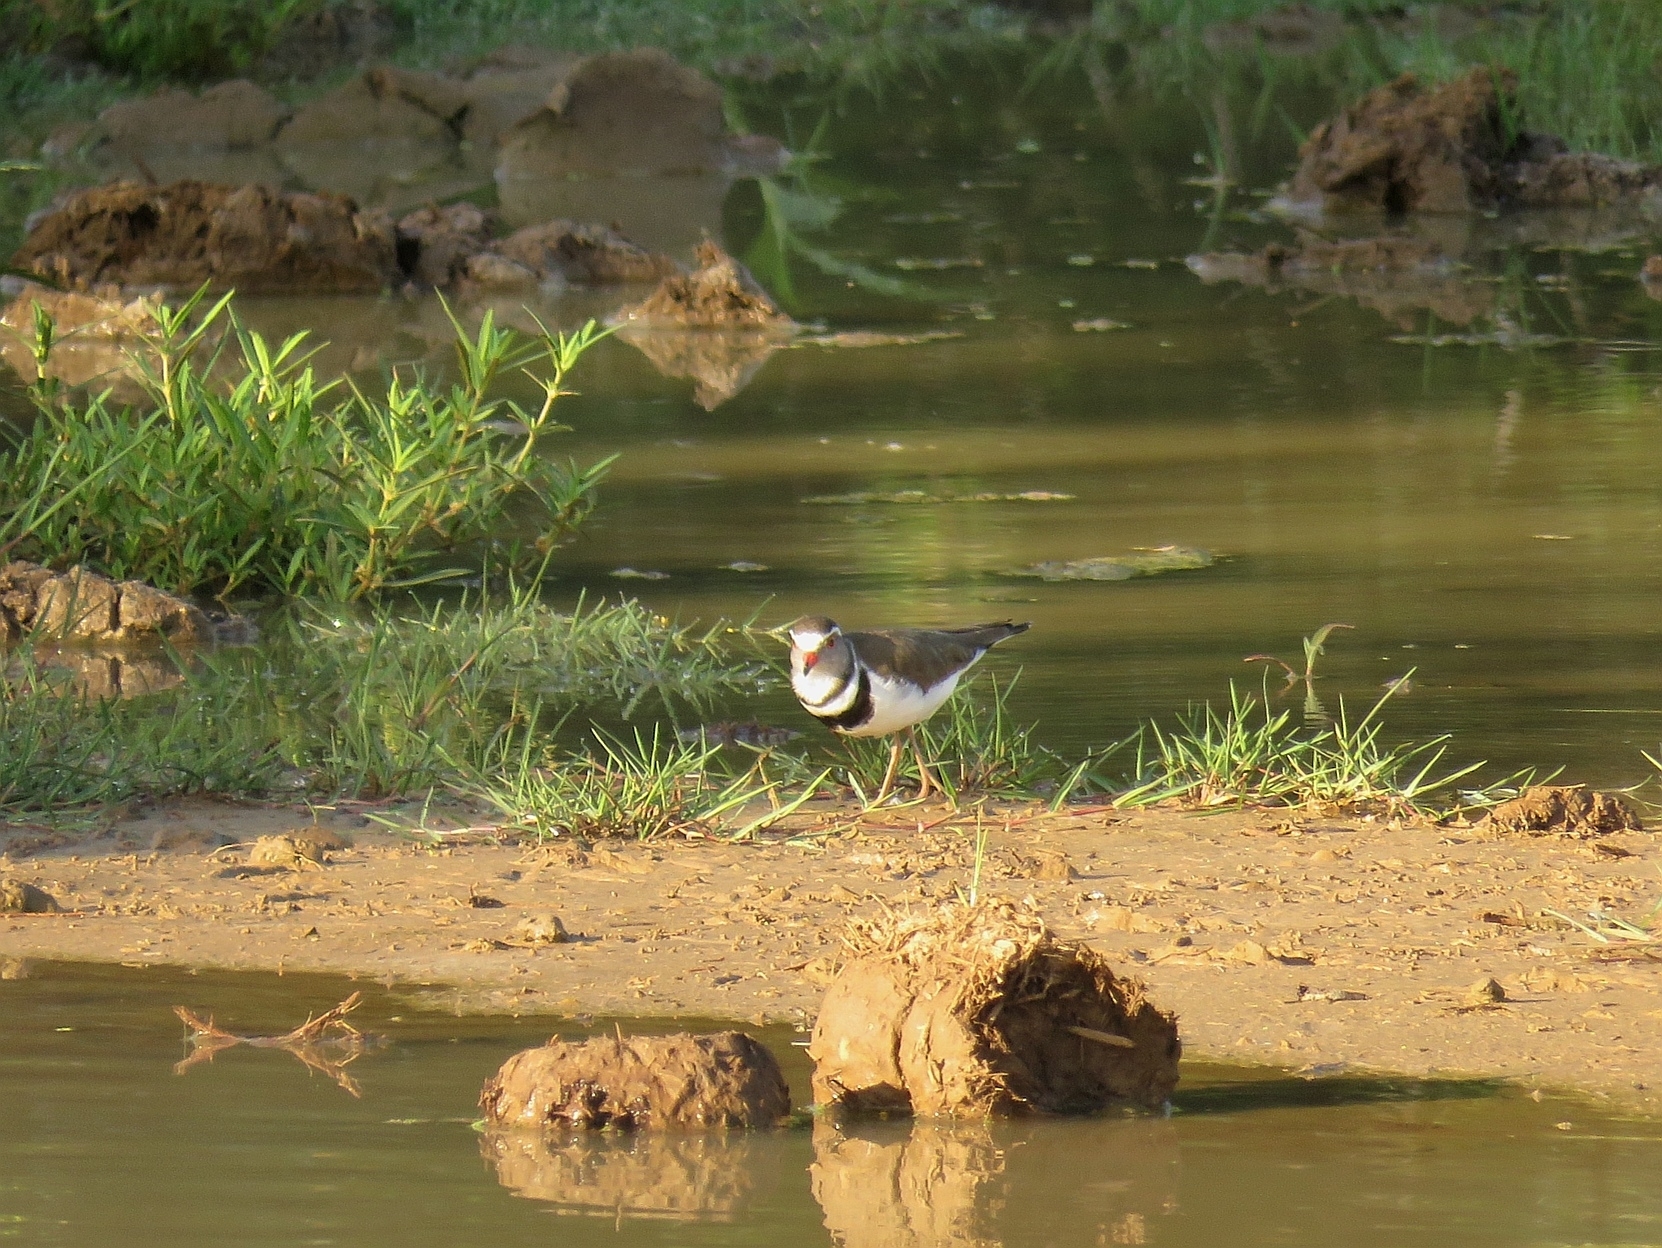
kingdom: Animalia
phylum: Chordata
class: Aves
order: Charadriiformes
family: Charadriidae
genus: Charadrius
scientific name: Charadrius tricollaris
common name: Three-banded plover
